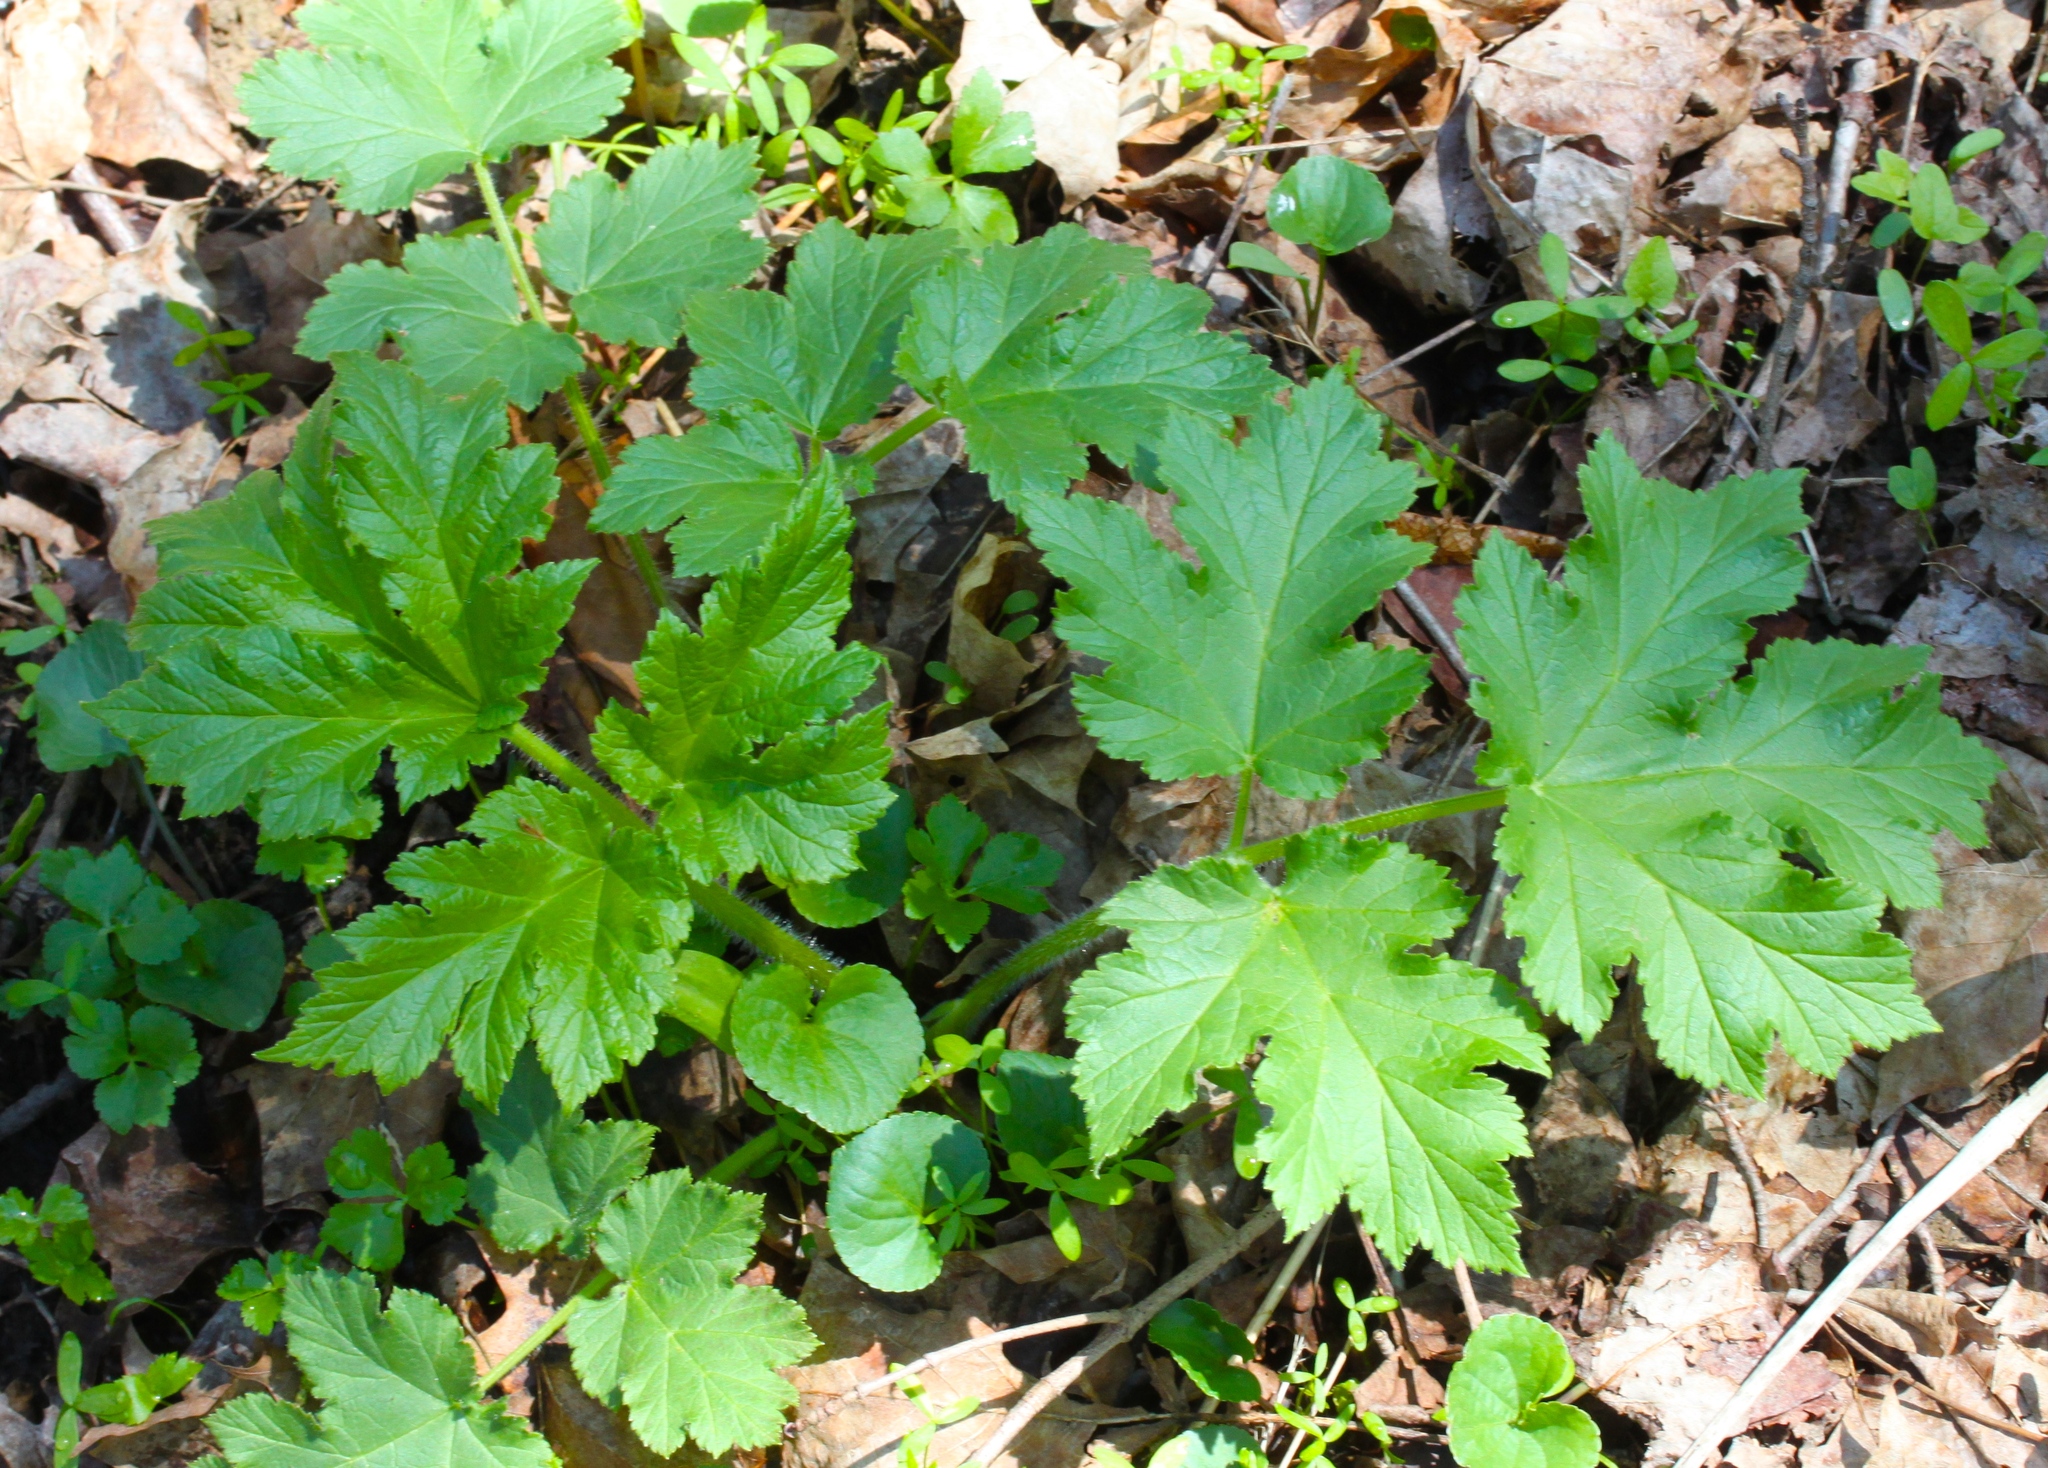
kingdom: Plantae
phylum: Tracheophyta
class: Magnoliopsida
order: Apiales
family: Apiaceae
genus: Heracleum
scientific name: Heracleum maximum
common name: American cow parsnip
